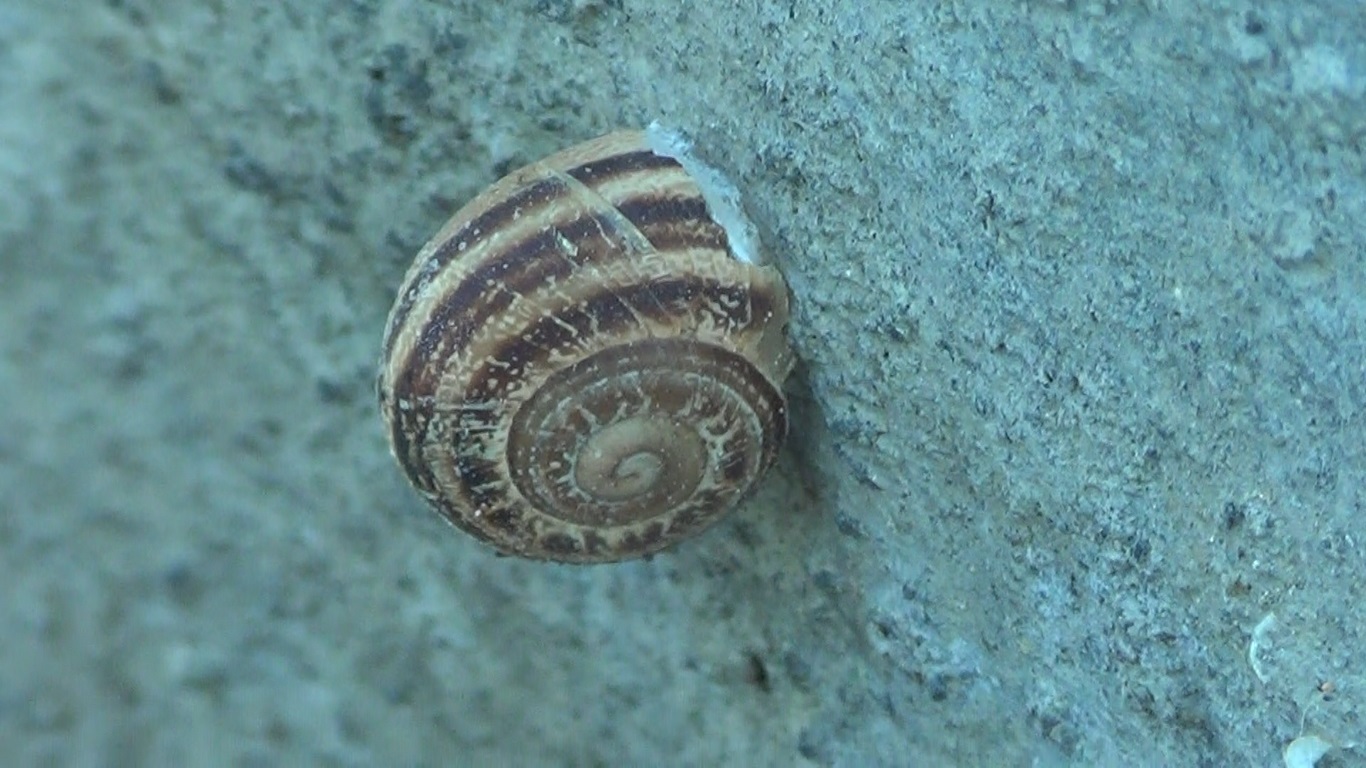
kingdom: Animalia
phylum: Mollusca
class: Gastropoda
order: Stylommatophora
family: Helicidae
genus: Eobania
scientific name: Eobania vermiculata
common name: Chocolateband snail
